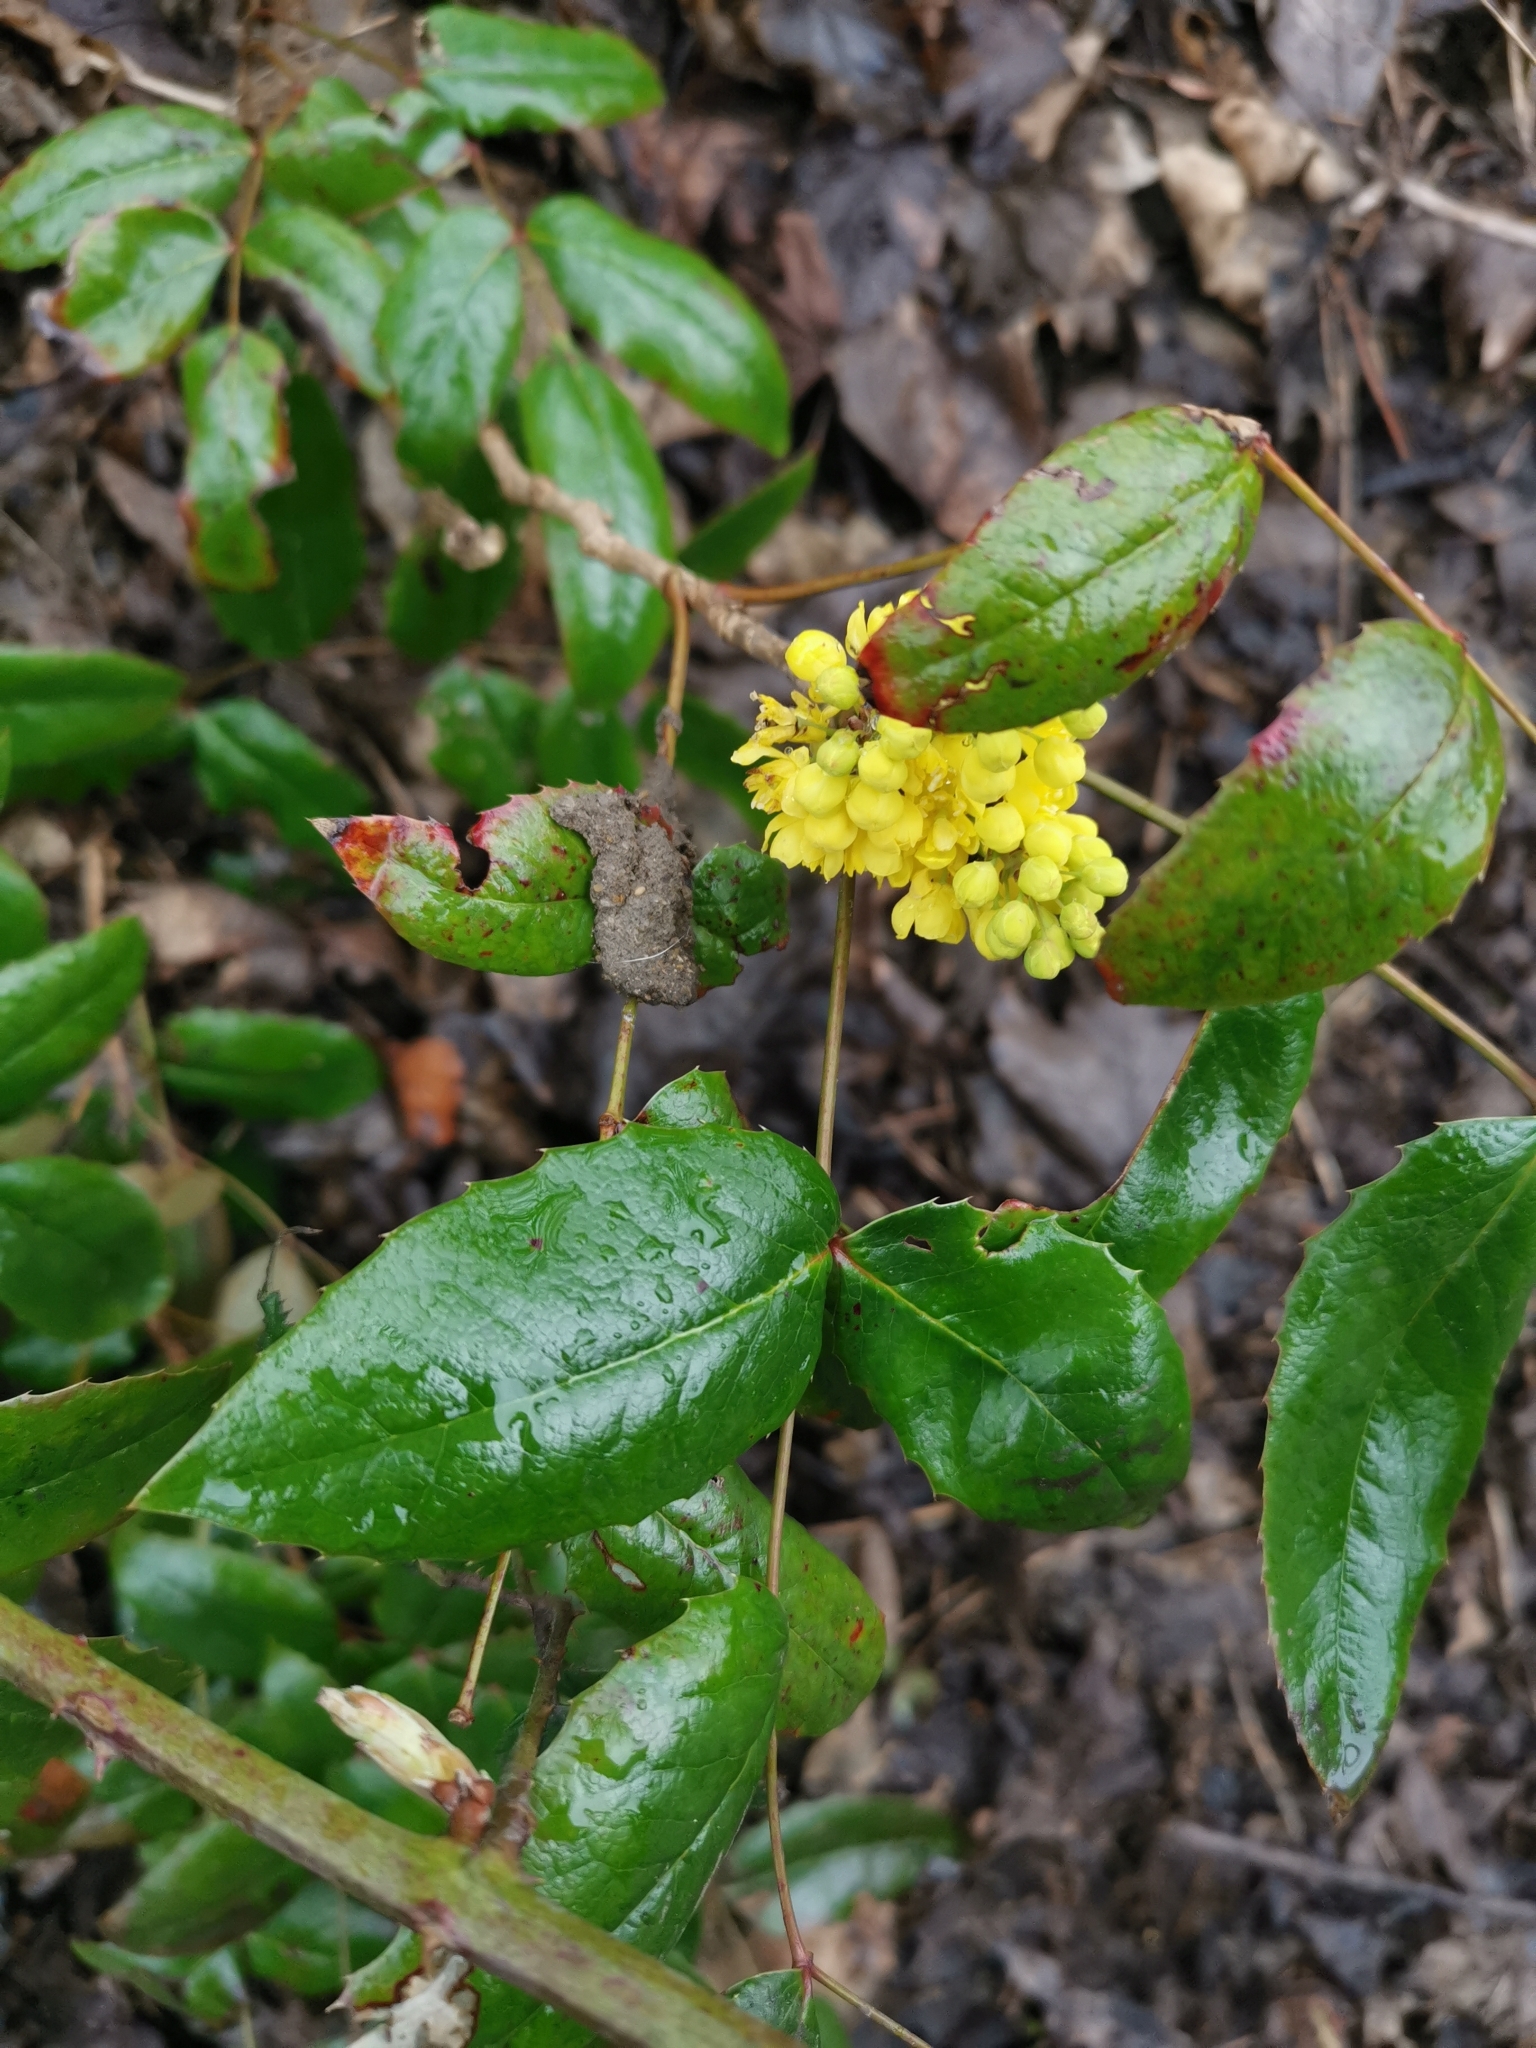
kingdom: Plantae
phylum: Tracheophyta
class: Magnoliopsida
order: Ranunculales
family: Berberidaceae
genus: Mahonia
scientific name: Mahonia aquifolium
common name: Oregon-grape
